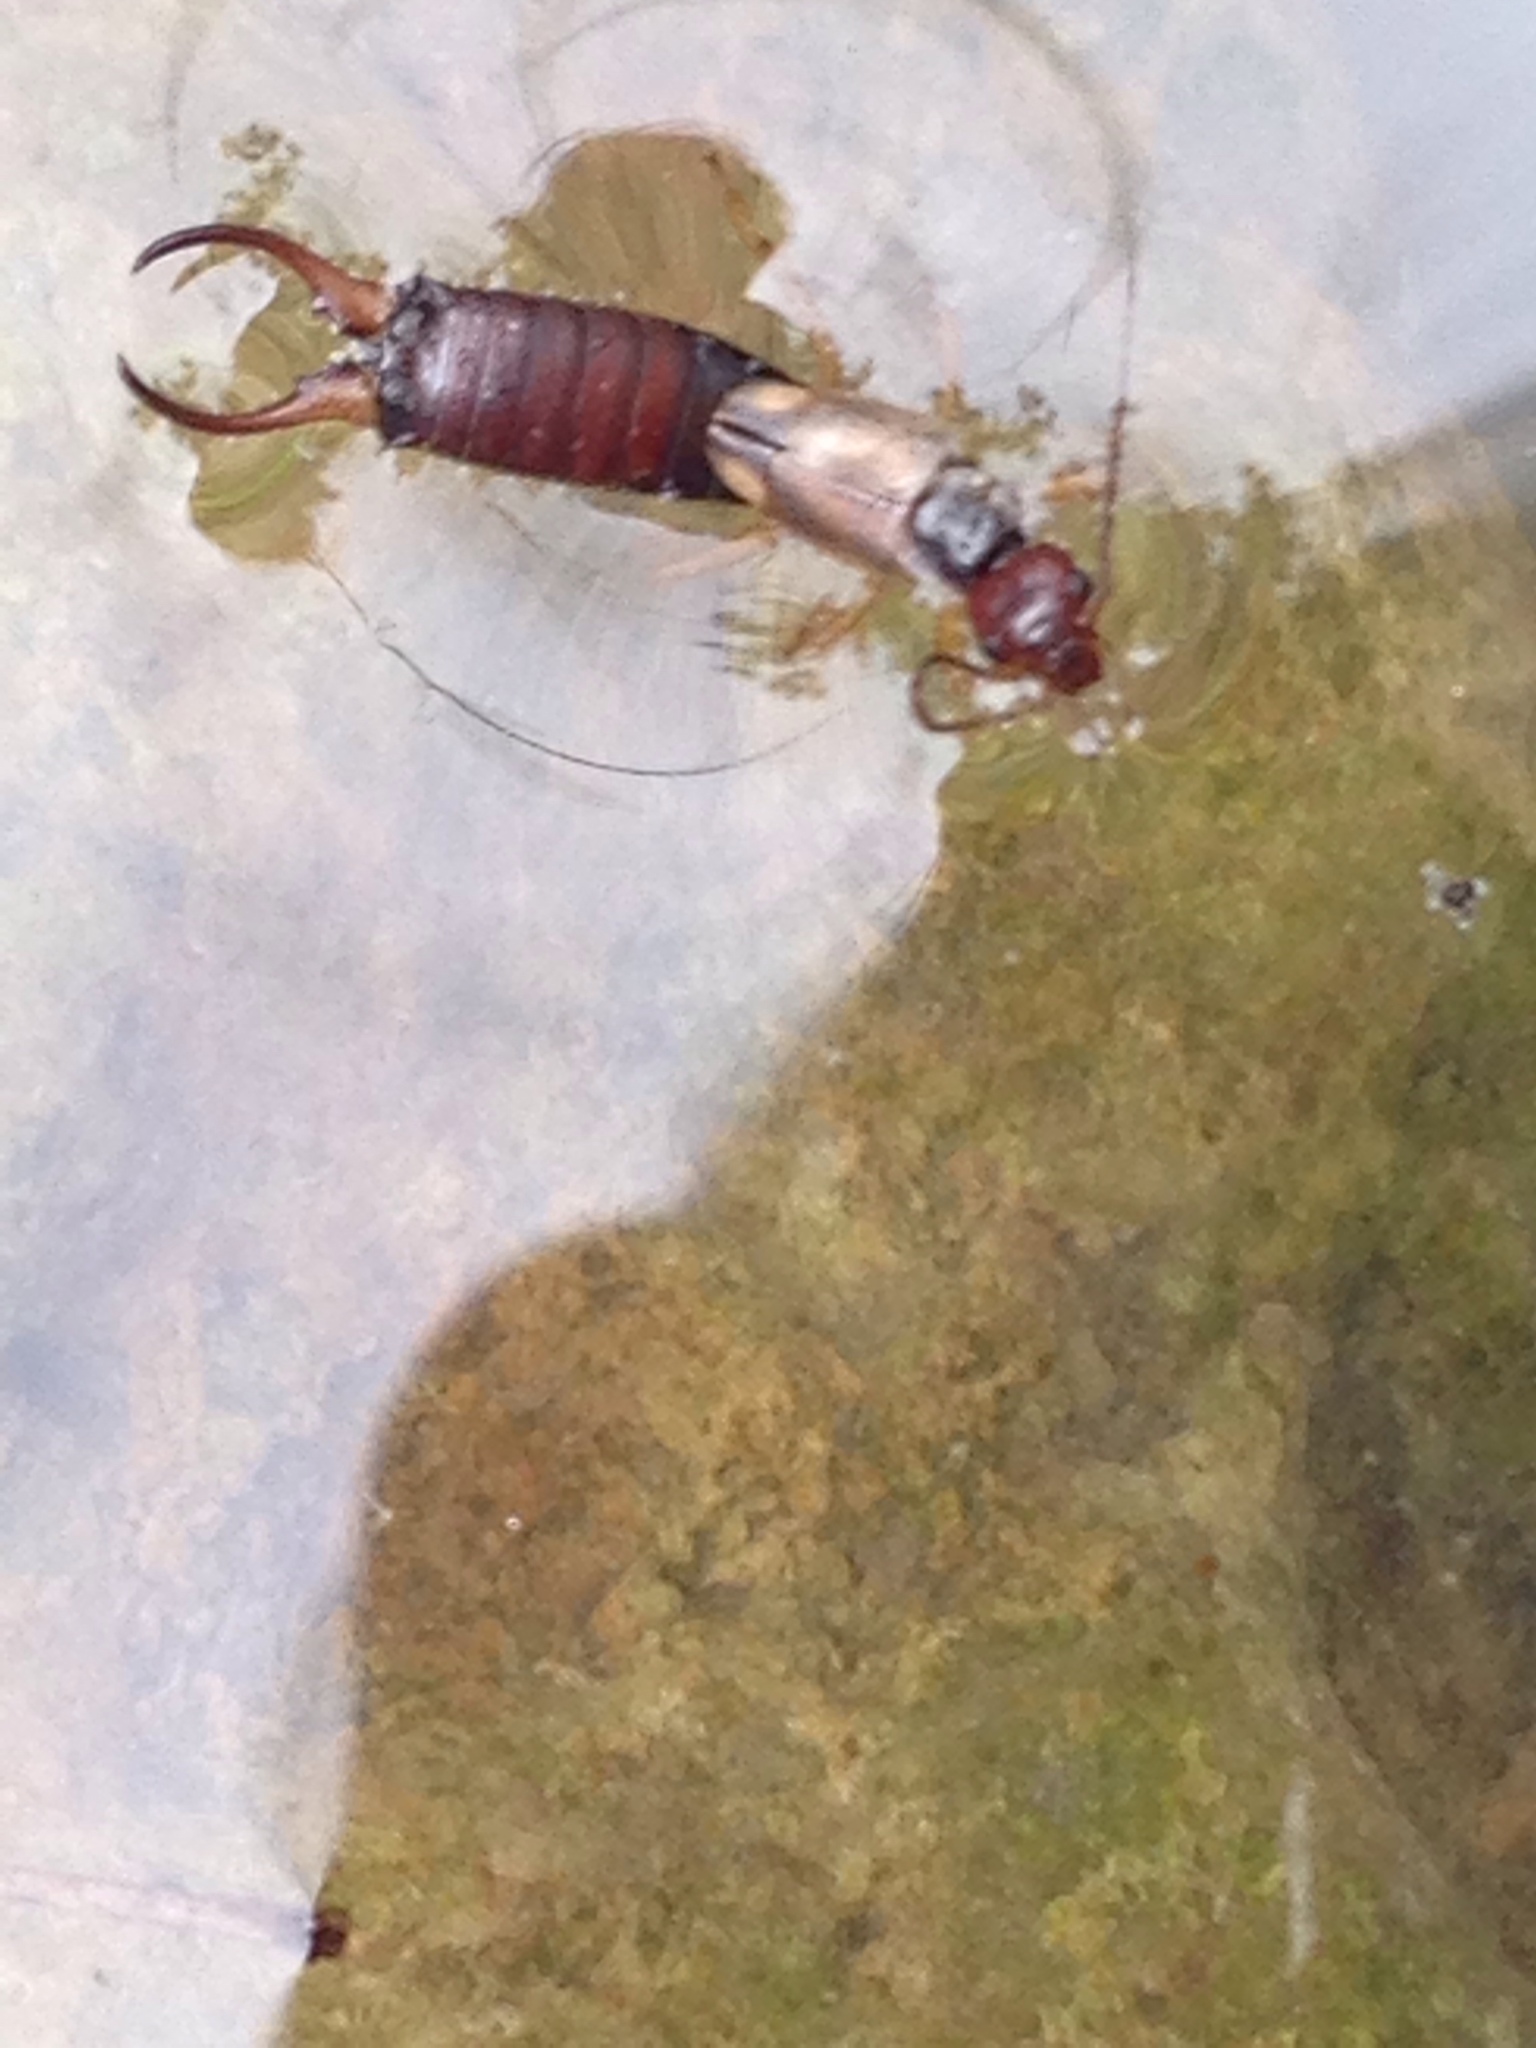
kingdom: Animalia
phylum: Arthropoda
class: Insecta
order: Dermaptera
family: Forficulidae
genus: Forficula
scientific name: Forficula
